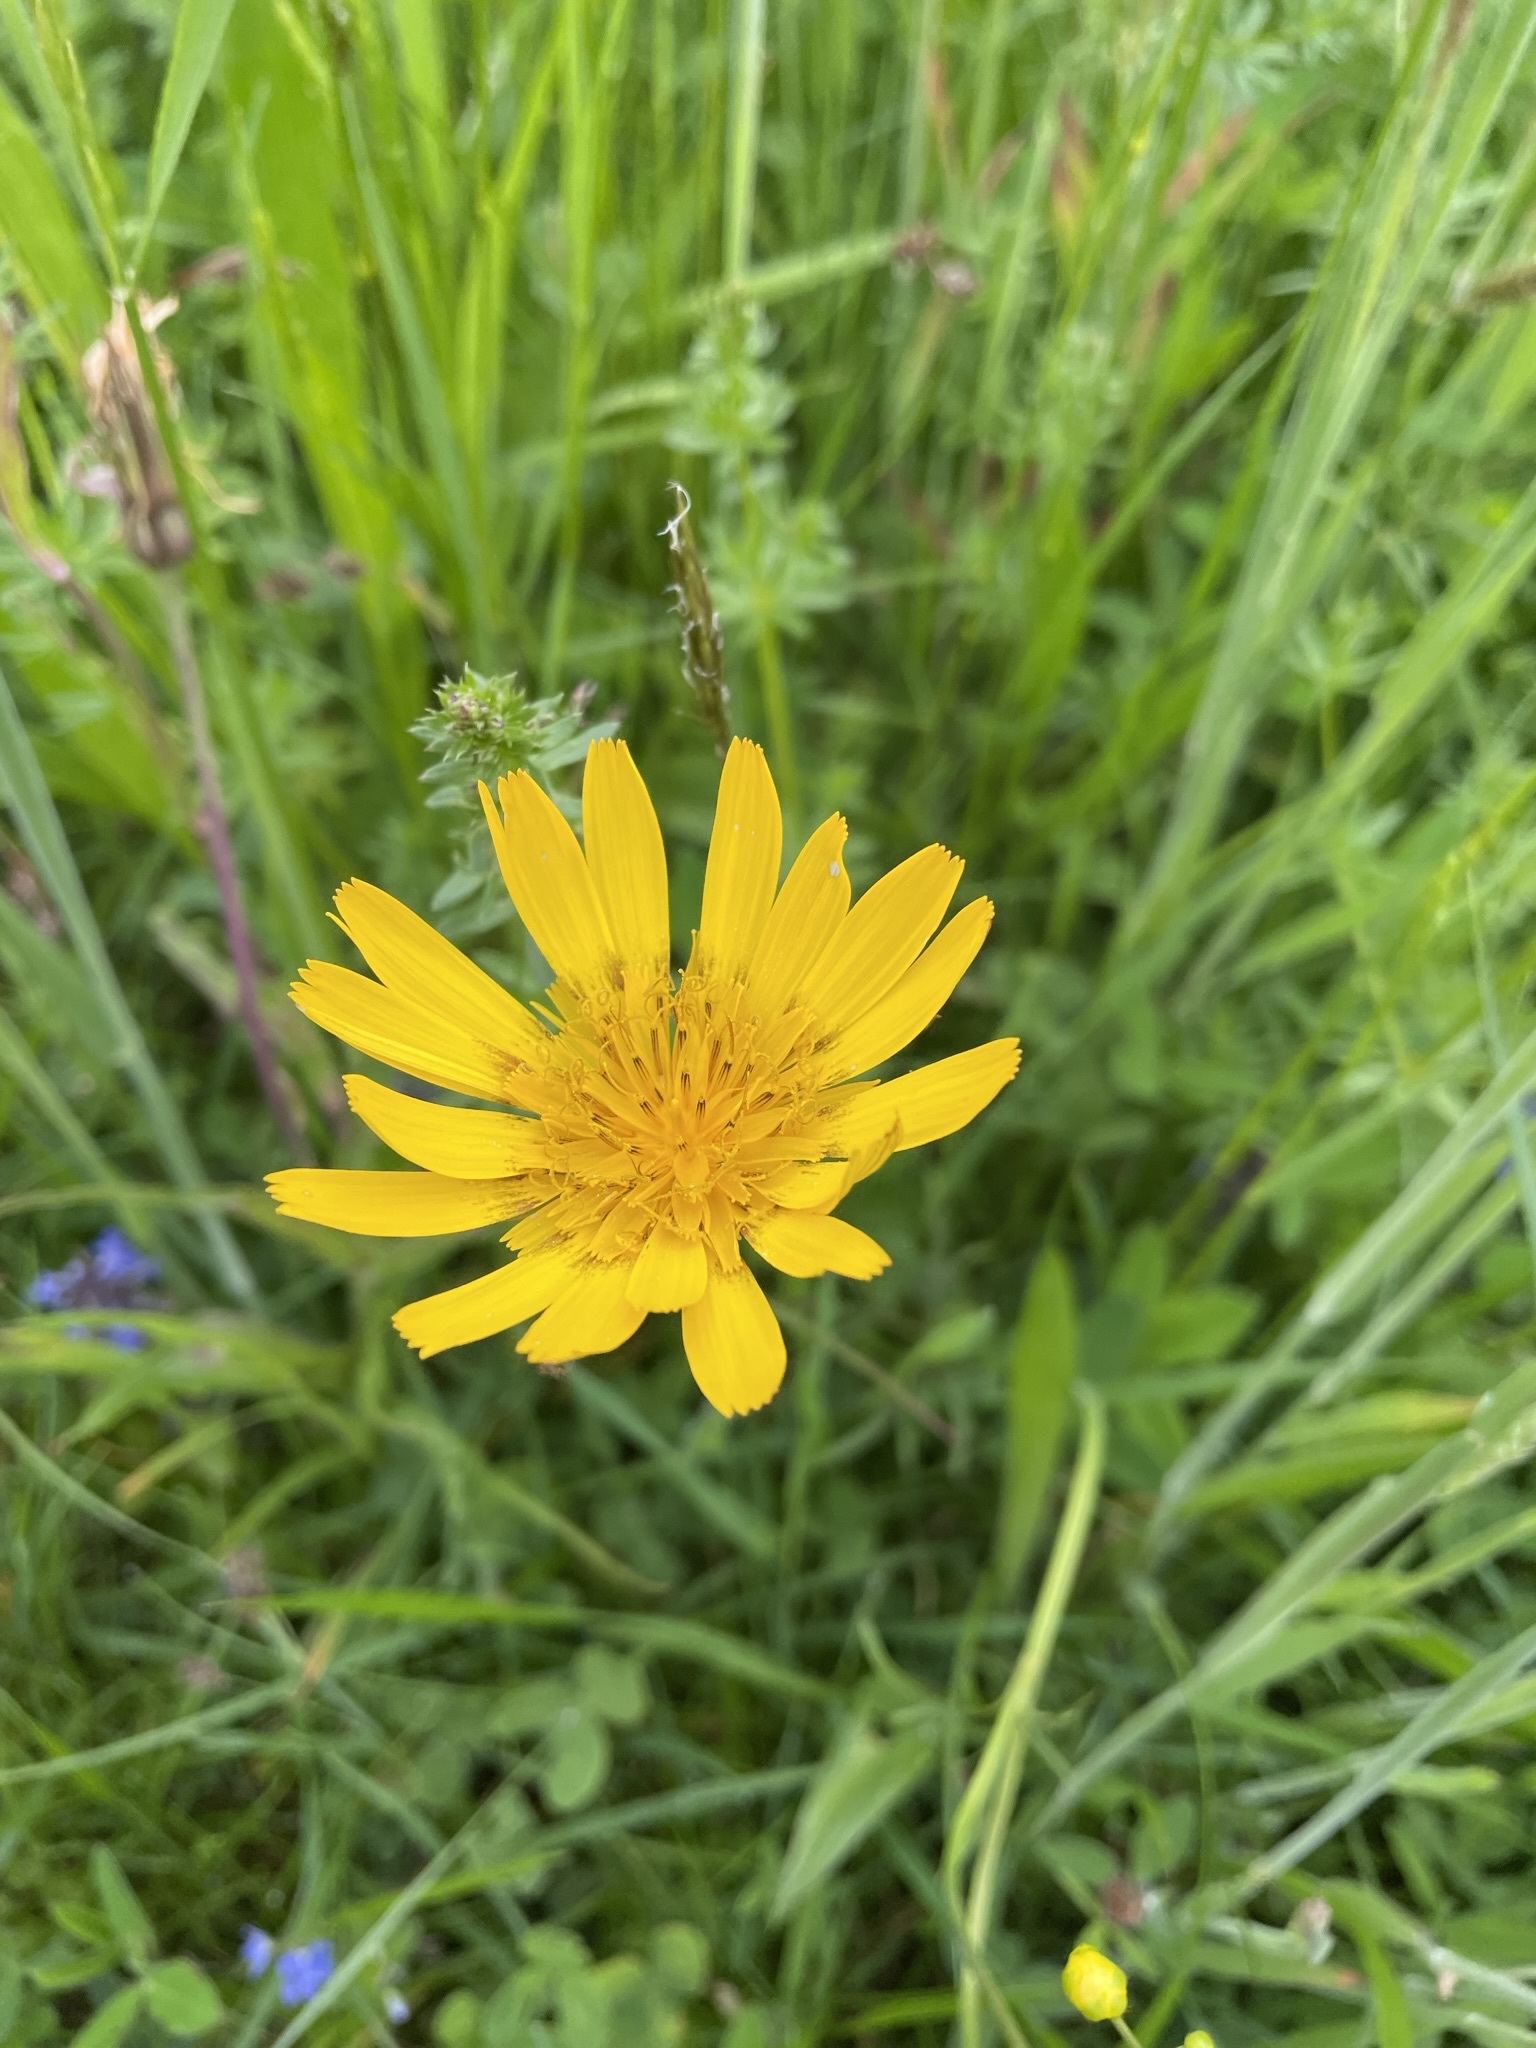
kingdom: Plantae
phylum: Tracheophyta
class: Magnoliopsida
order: Asterales
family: Asteraceae
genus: Tragopogon
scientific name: Tragopogon orientalis
